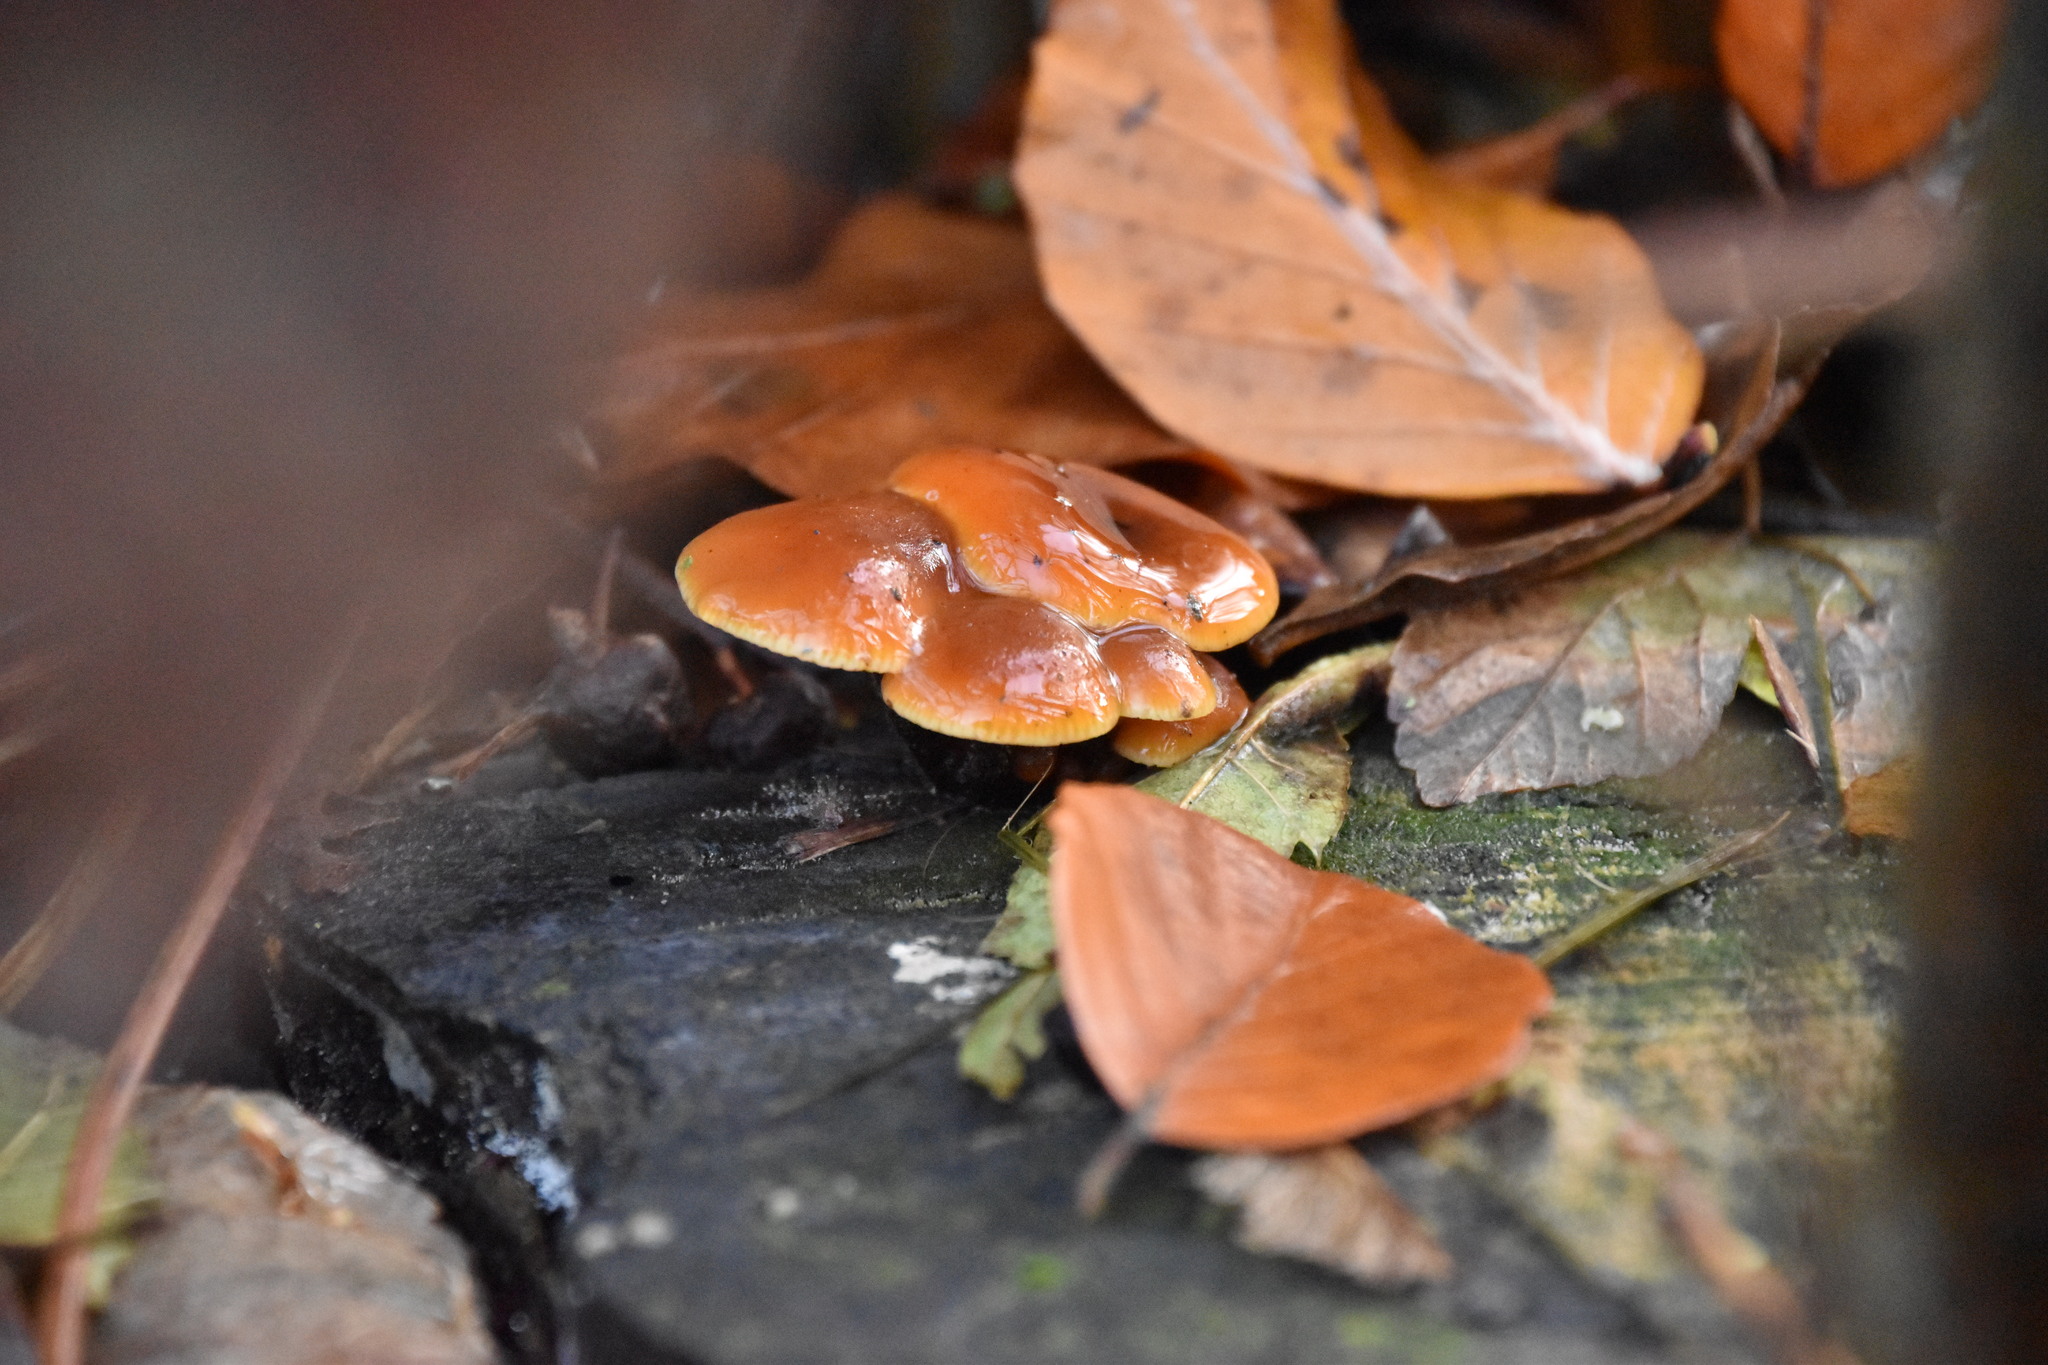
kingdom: Fungi
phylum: Basidiomycota
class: Agaricomycetes
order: Agaricales
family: Physalacriaceae
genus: Flammulina
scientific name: Flammulina
